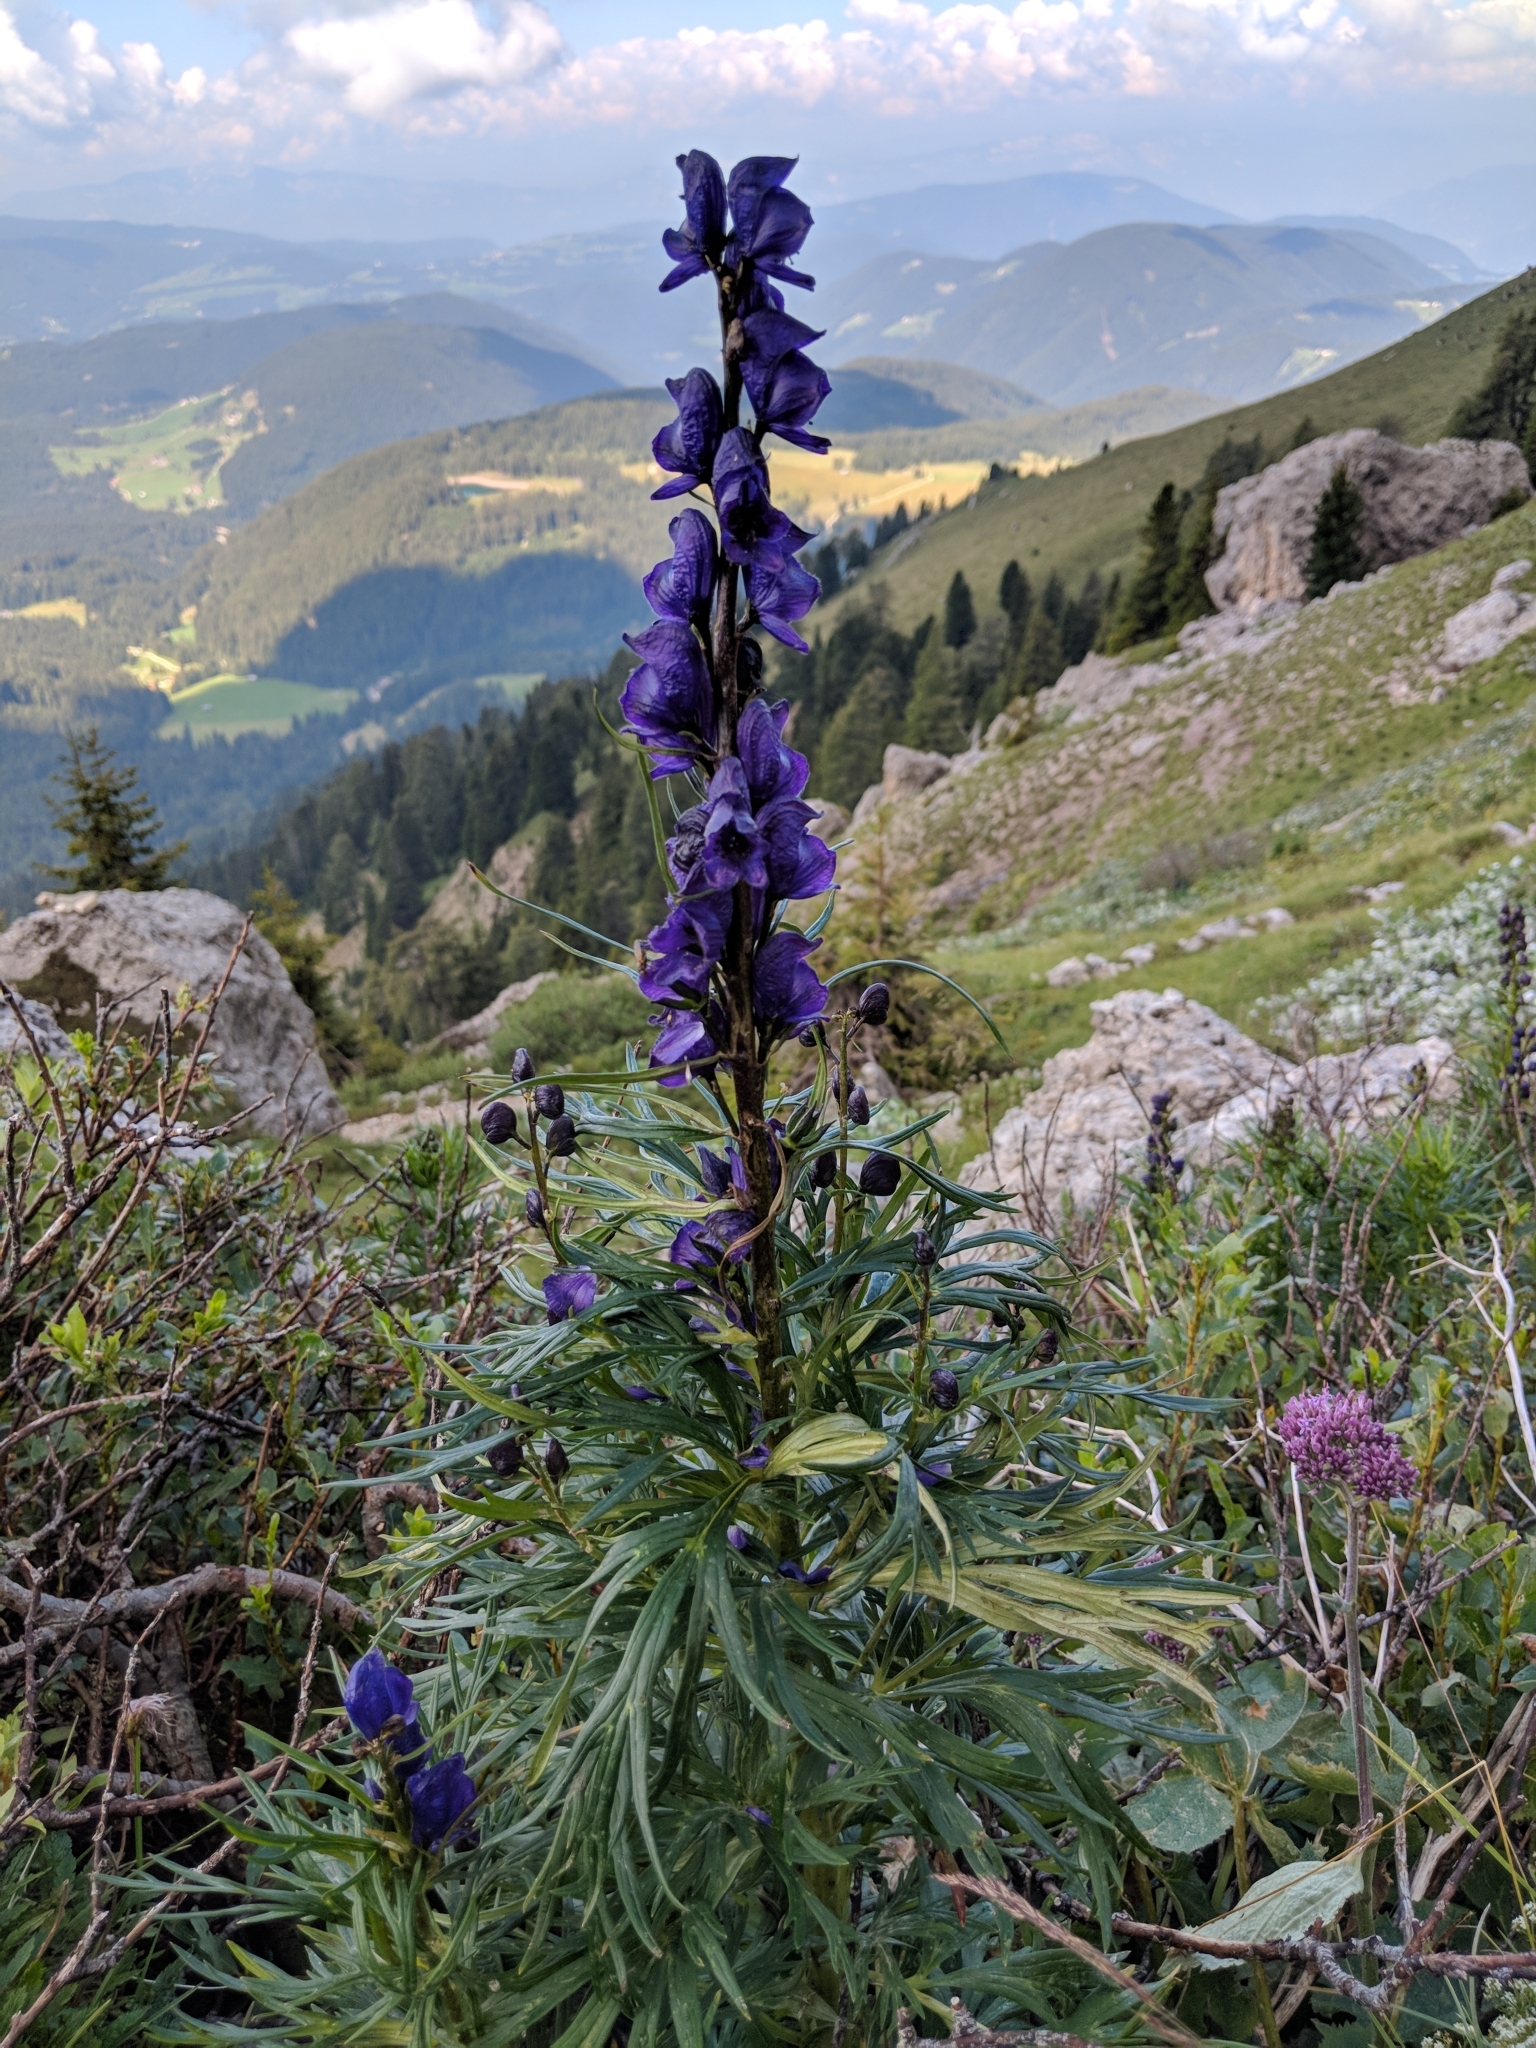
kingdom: Plantae
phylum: Tracheophyta
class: Magnoliopsida
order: Ranunculales
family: Ranunculaceae
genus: Aconitum
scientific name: Aconitum tauricum
